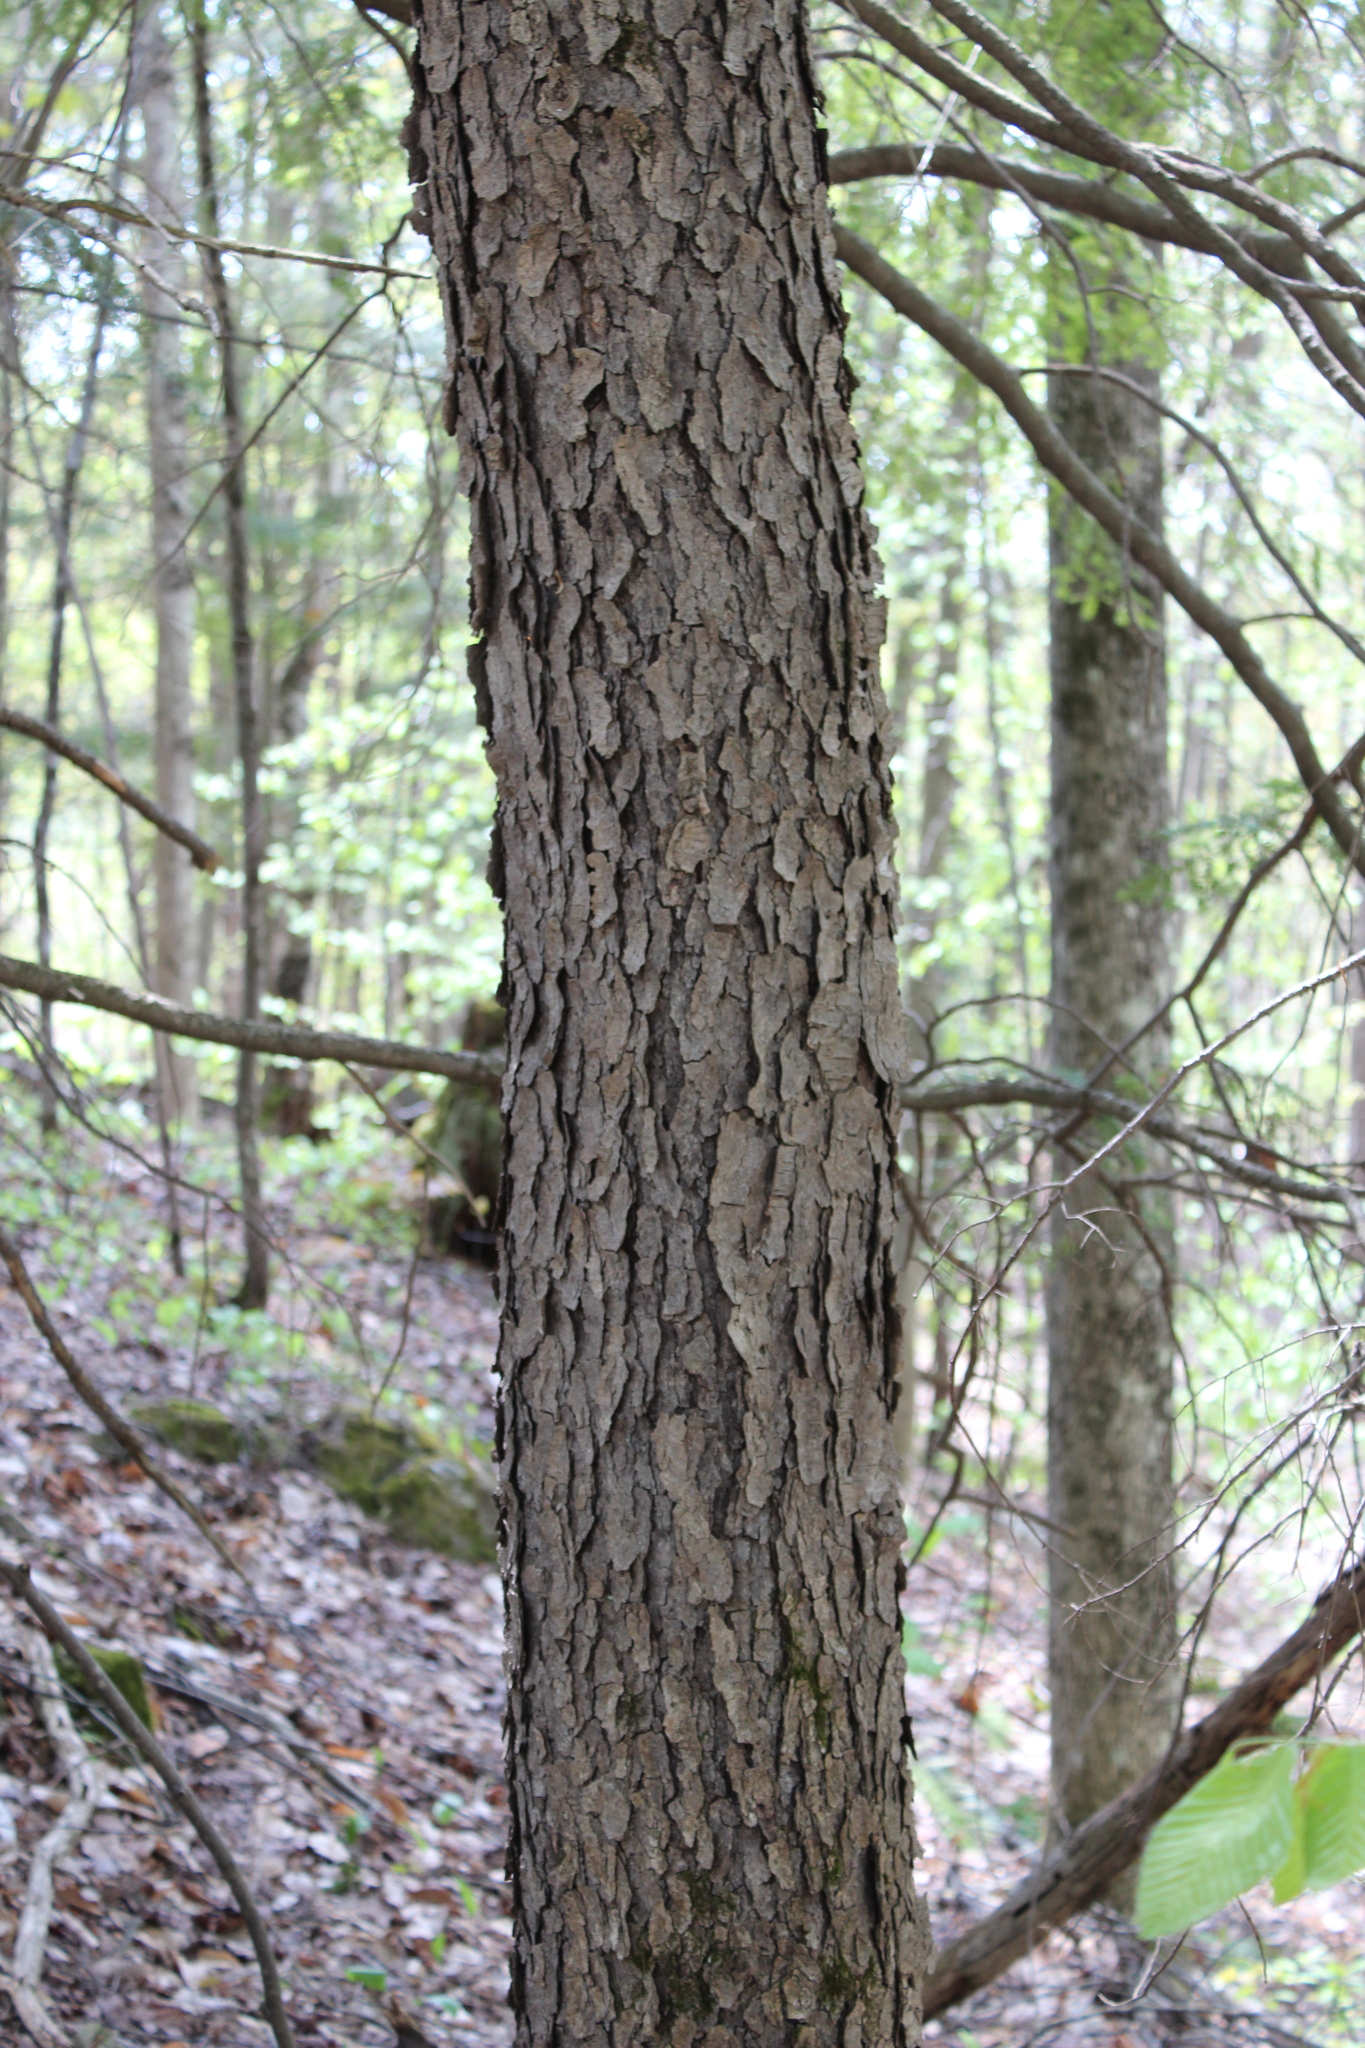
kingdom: Plantae
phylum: Tracheophyta
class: Magnoliopsida
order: Rosales
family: Rosaceae
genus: Prunus
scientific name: Prunus serotina
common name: Black cherry
